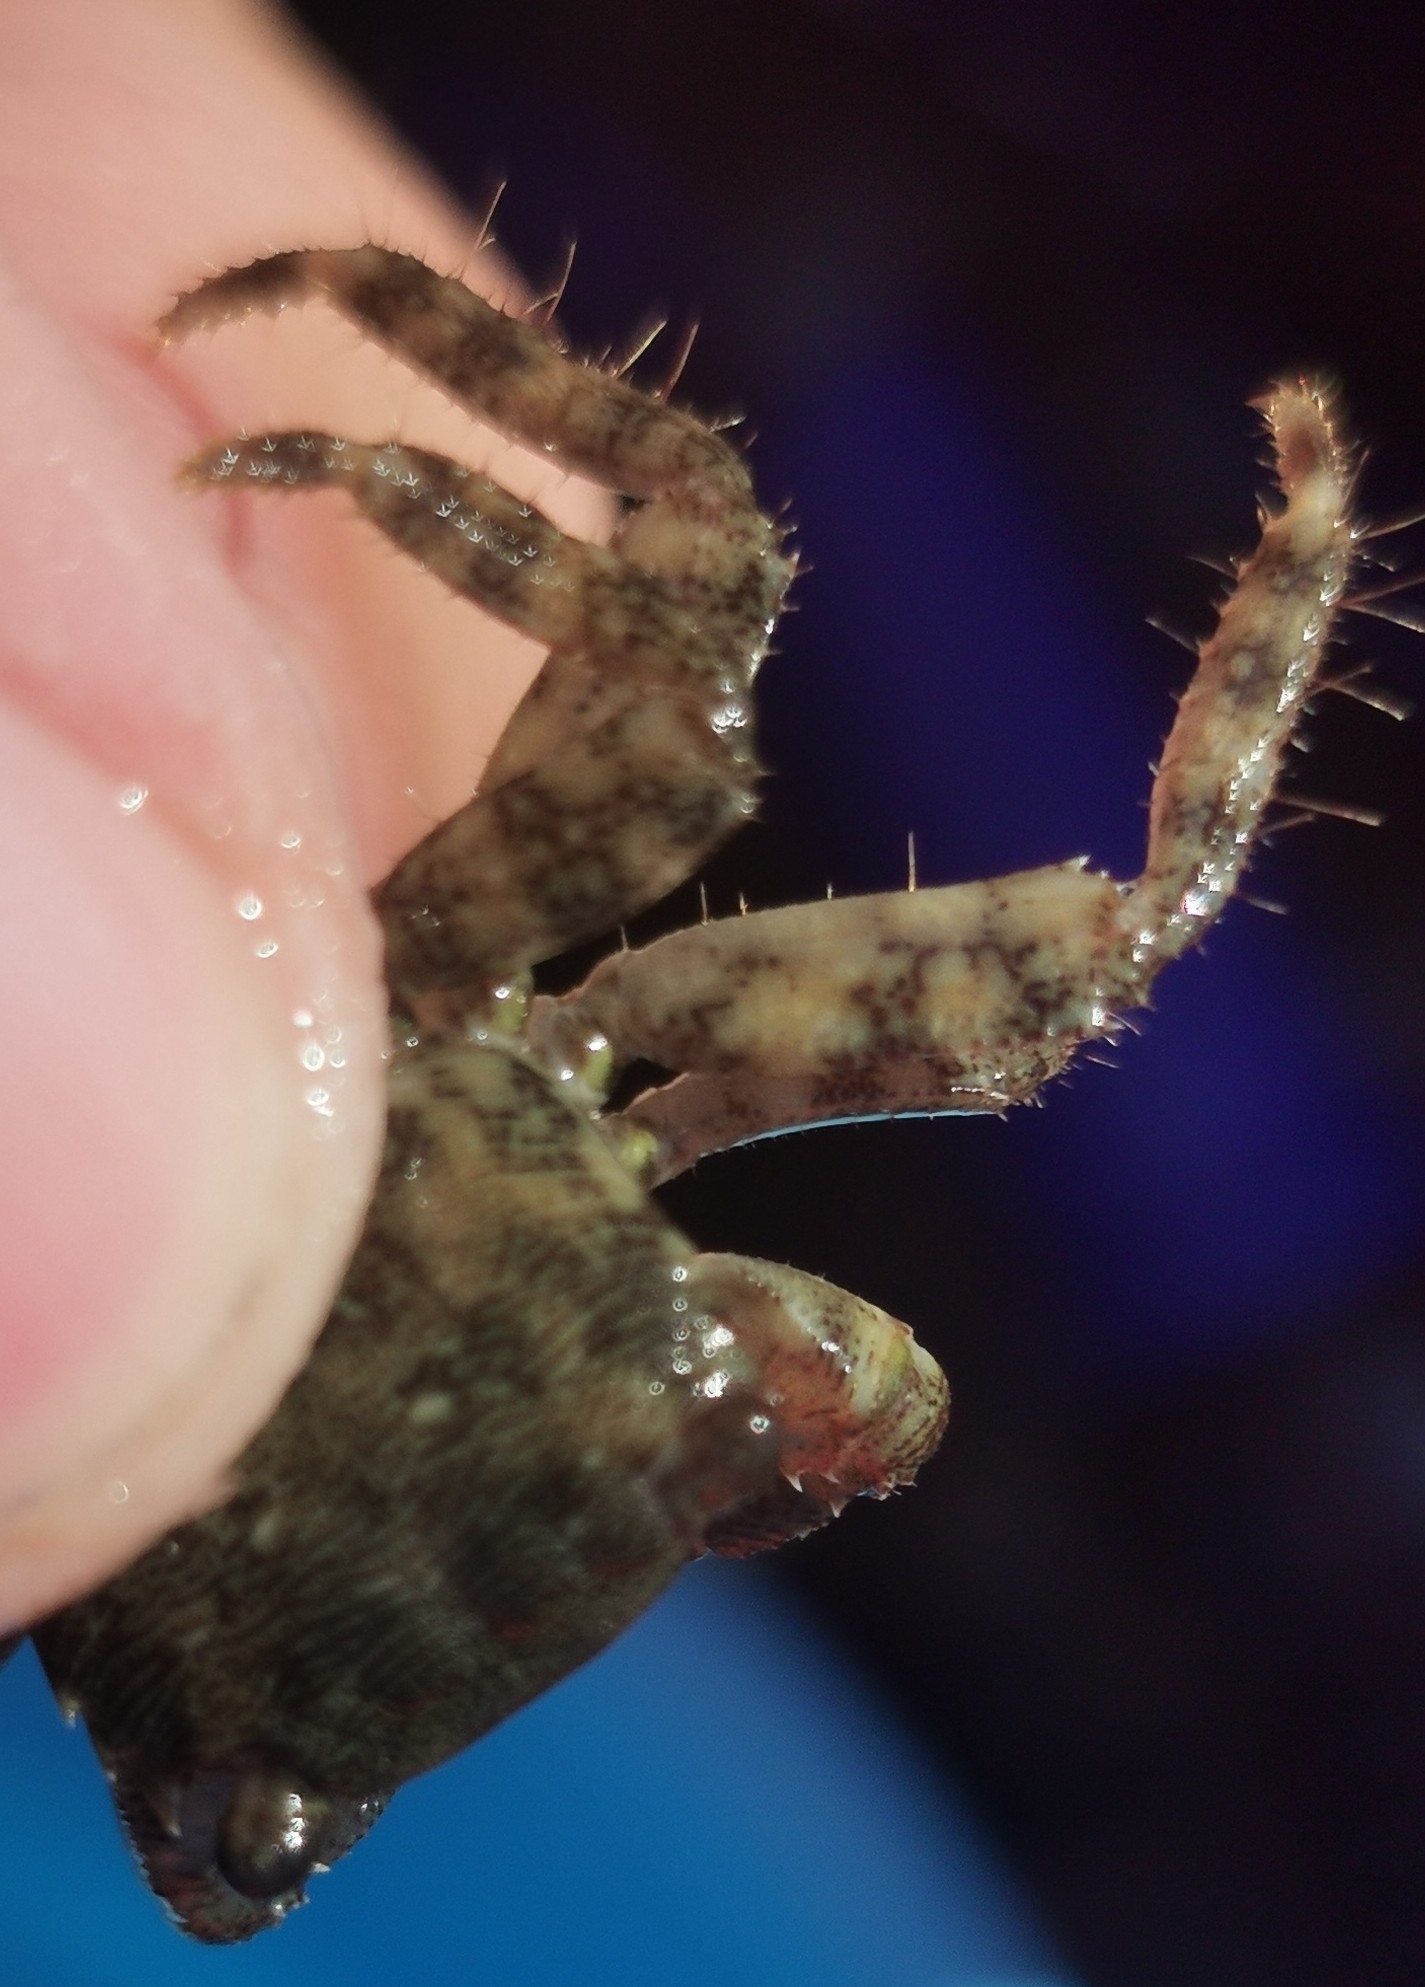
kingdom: Animalia
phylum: Arthropoda
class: Malacostraca
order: Decapoda
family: Grapsidae
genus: Pachygrapsus
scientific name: Pachygrapsus marmoratus
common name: Marbled rock crab
